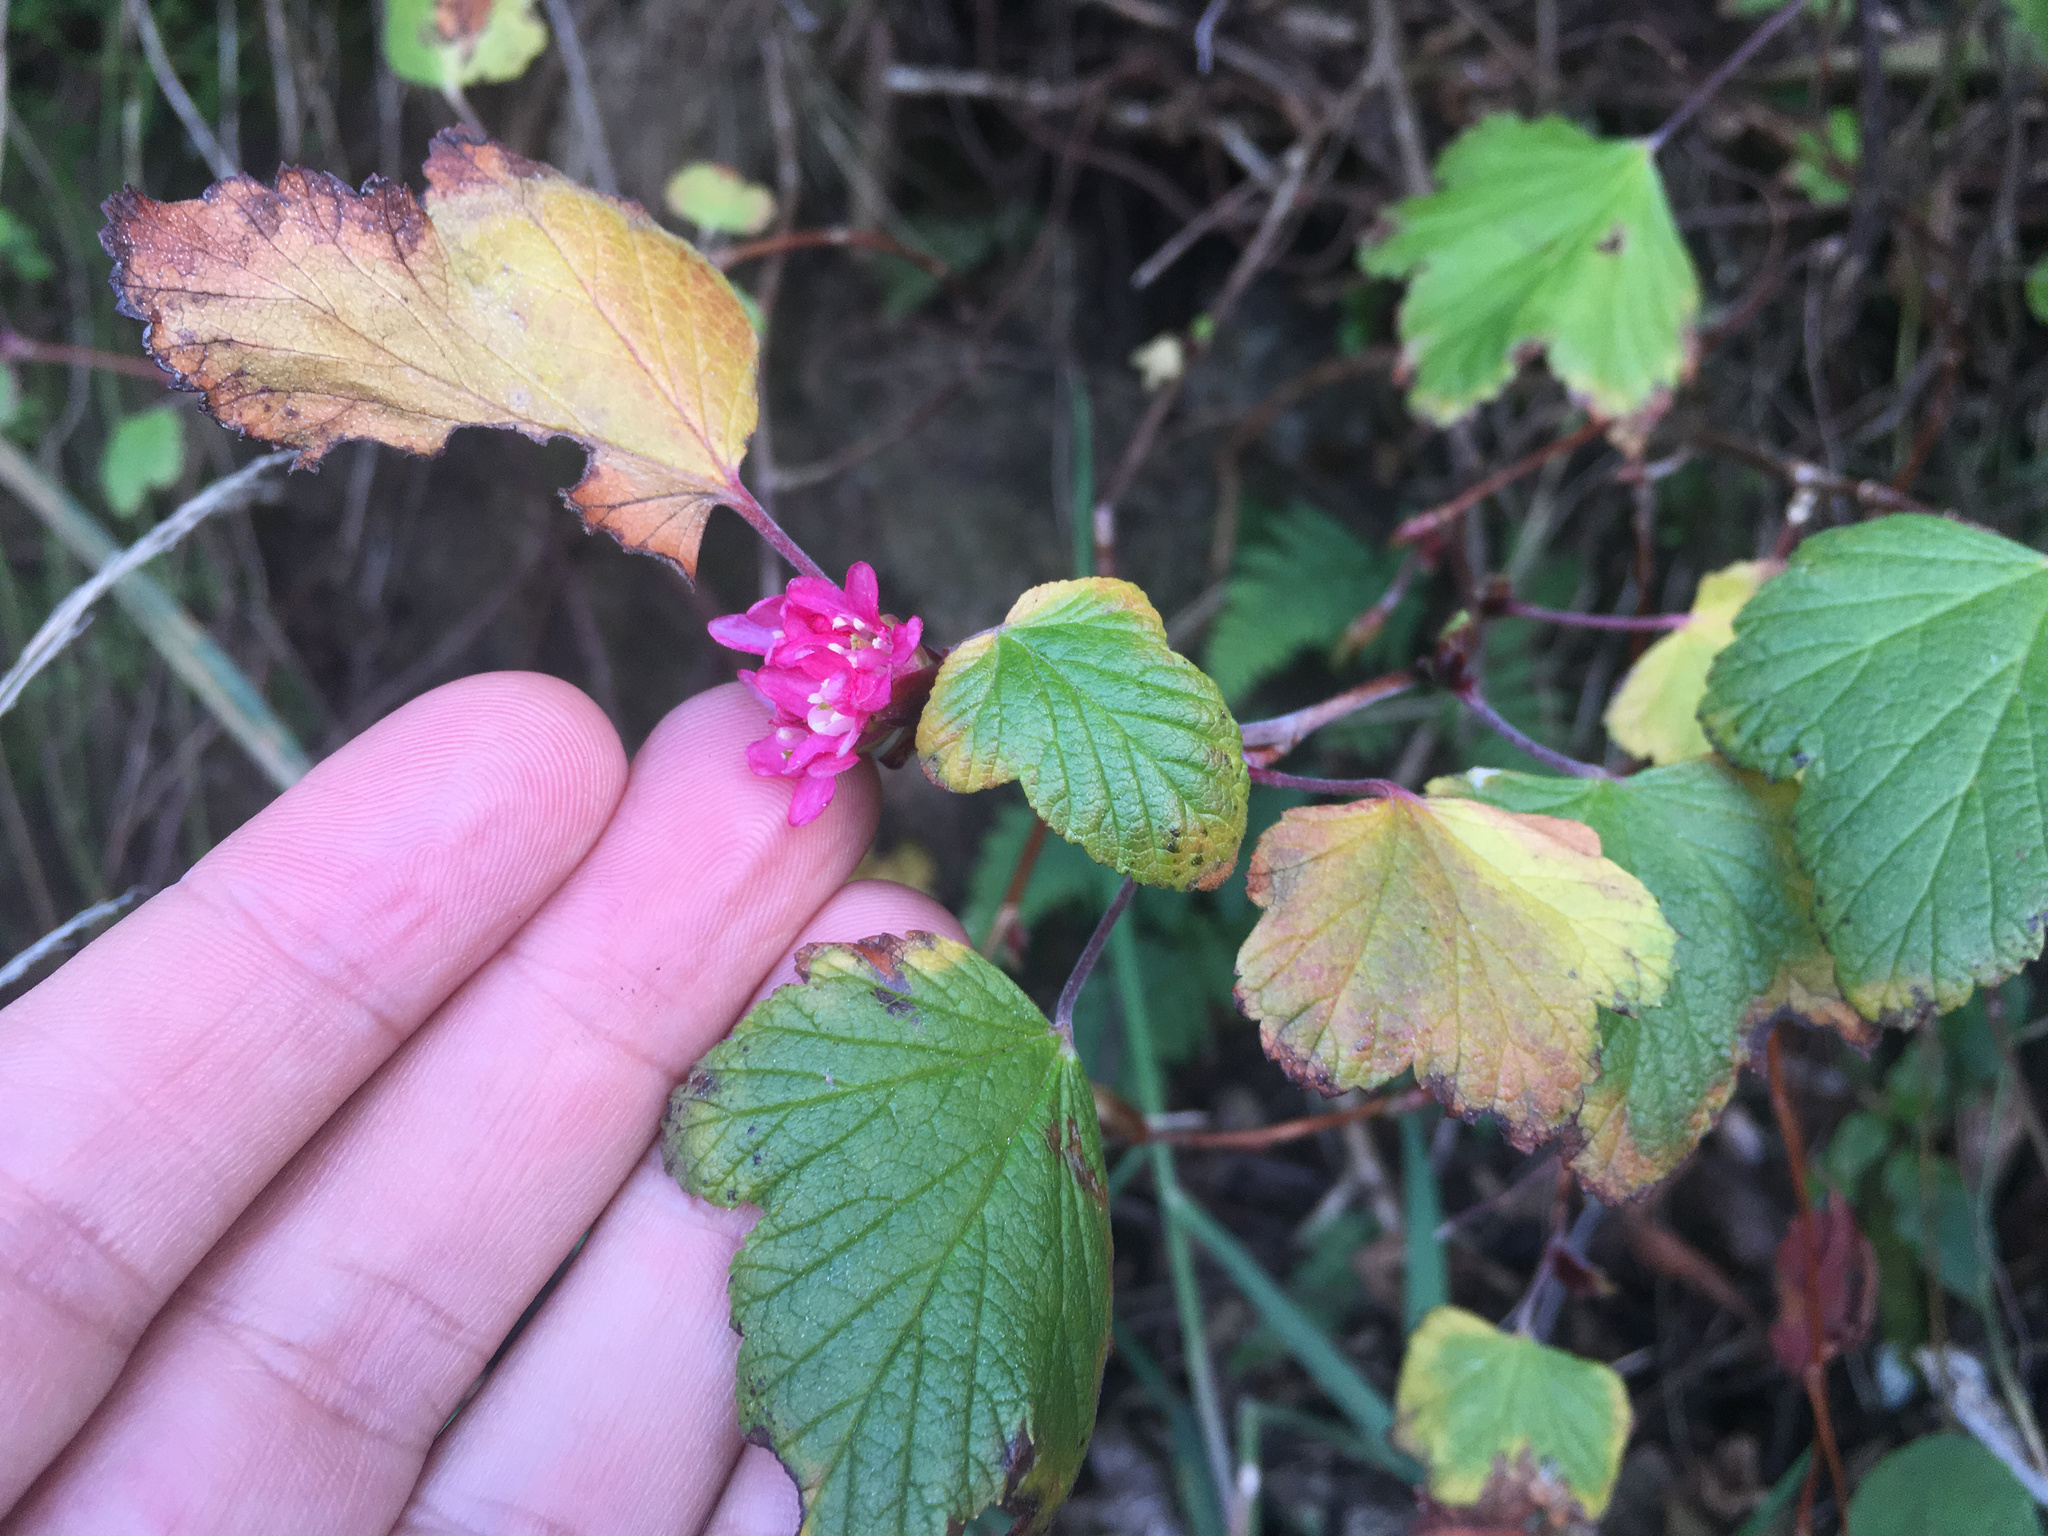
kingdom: Plantae
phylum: Tracheophyta
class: Magnoliopsida
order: Saxifragales
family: Grossulariaceae
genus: Ribes
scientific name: Ribes sanguineum
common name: Flowering currant
